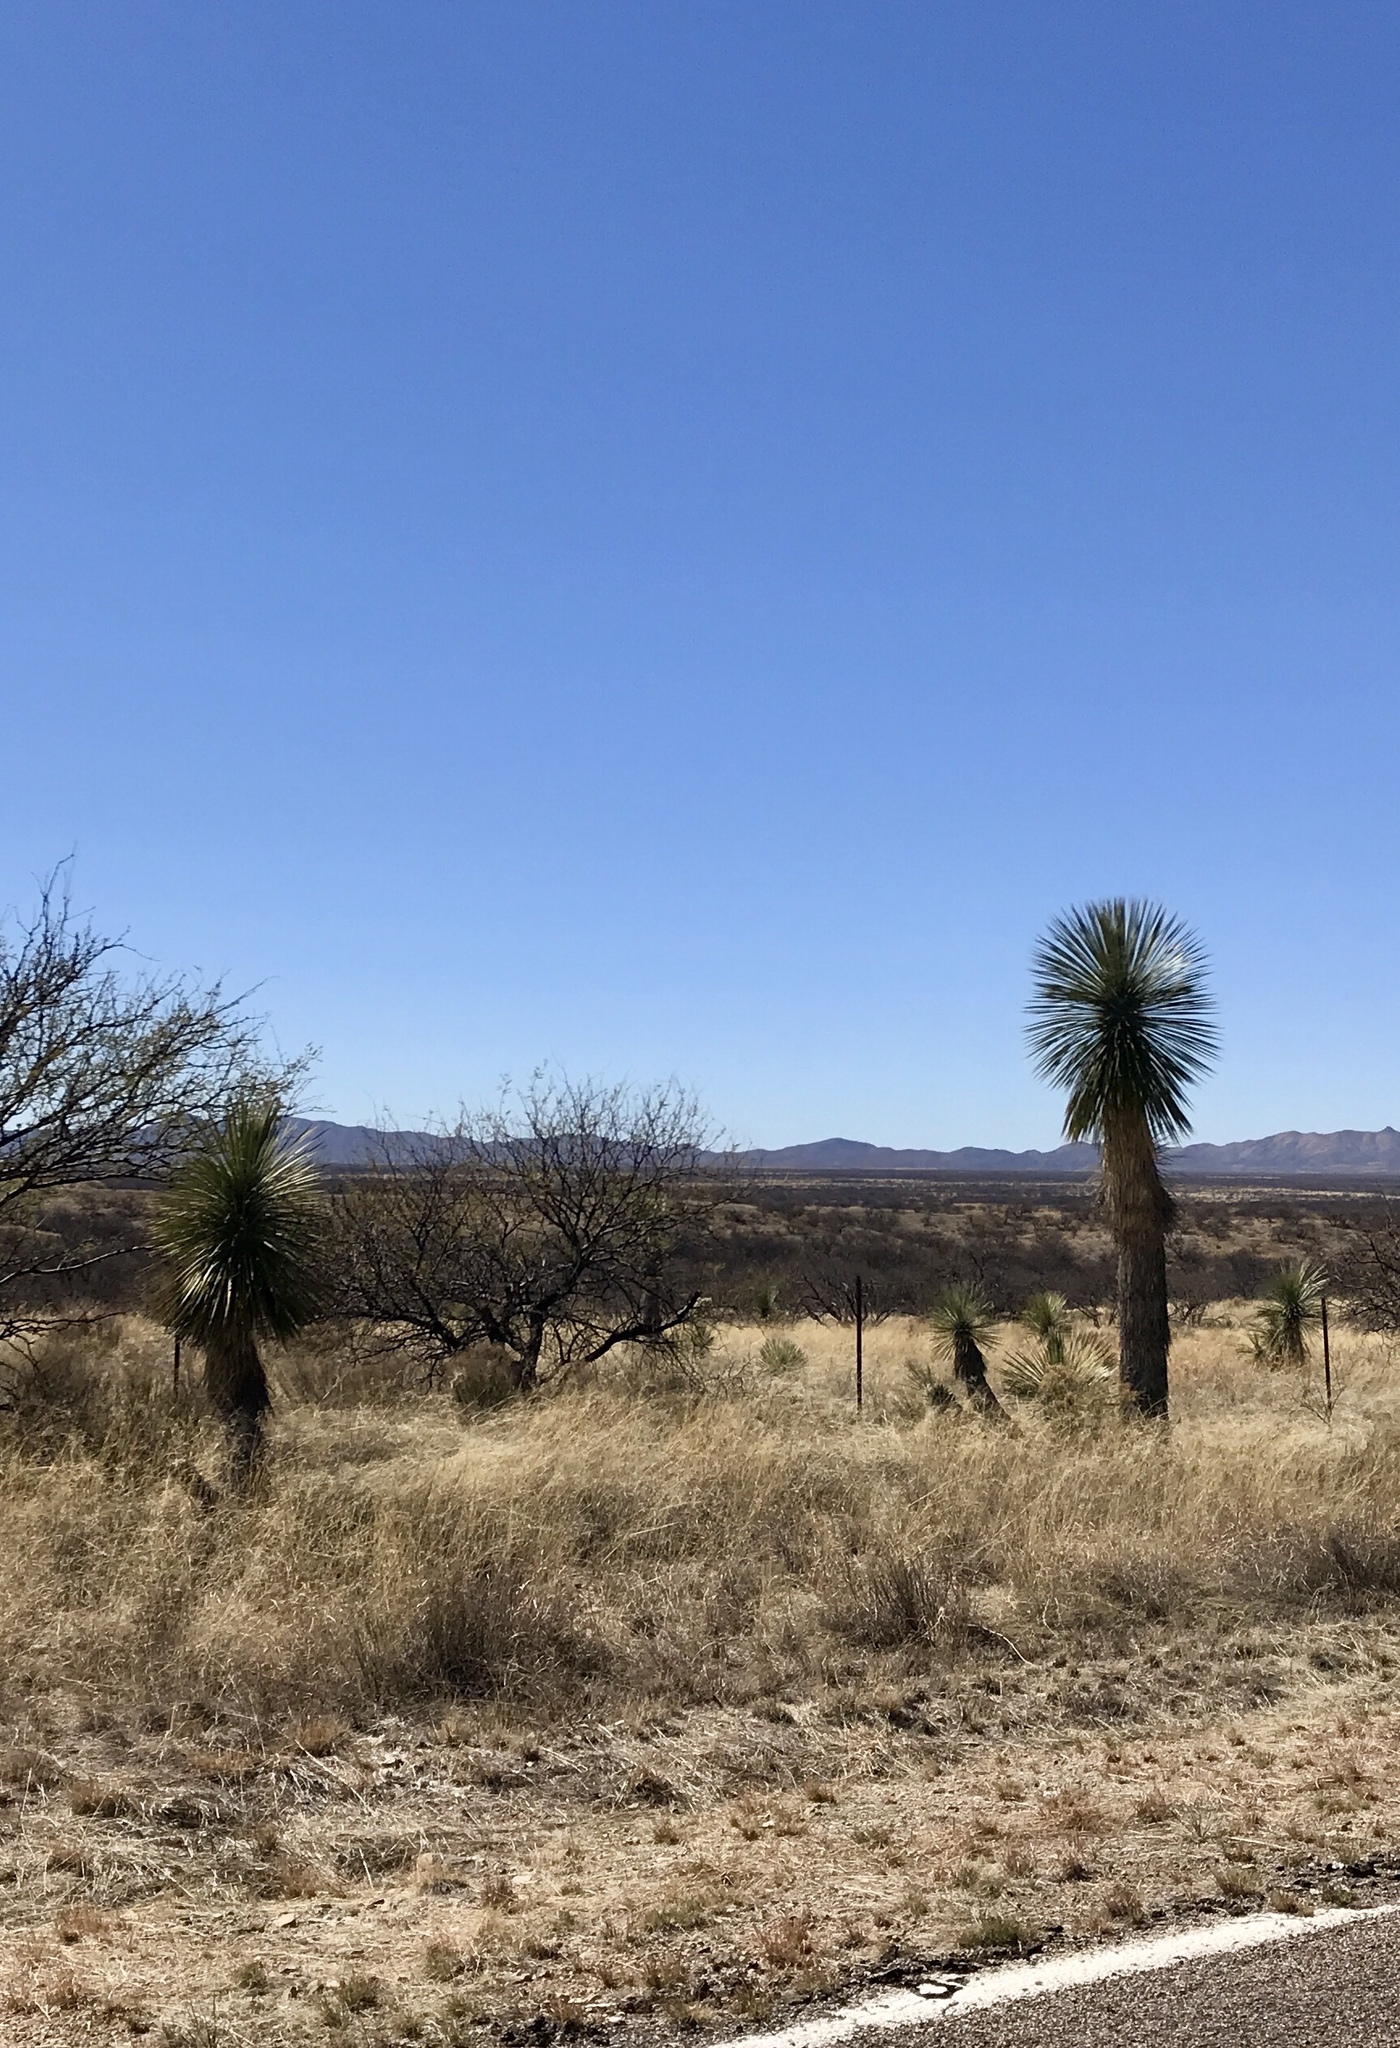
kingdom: Plantae
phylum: Tracheophyta
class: Liliopsida
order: Asparagales
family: Asparagaceae
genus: Yucca
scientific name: Yucca elata
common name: Palmella
